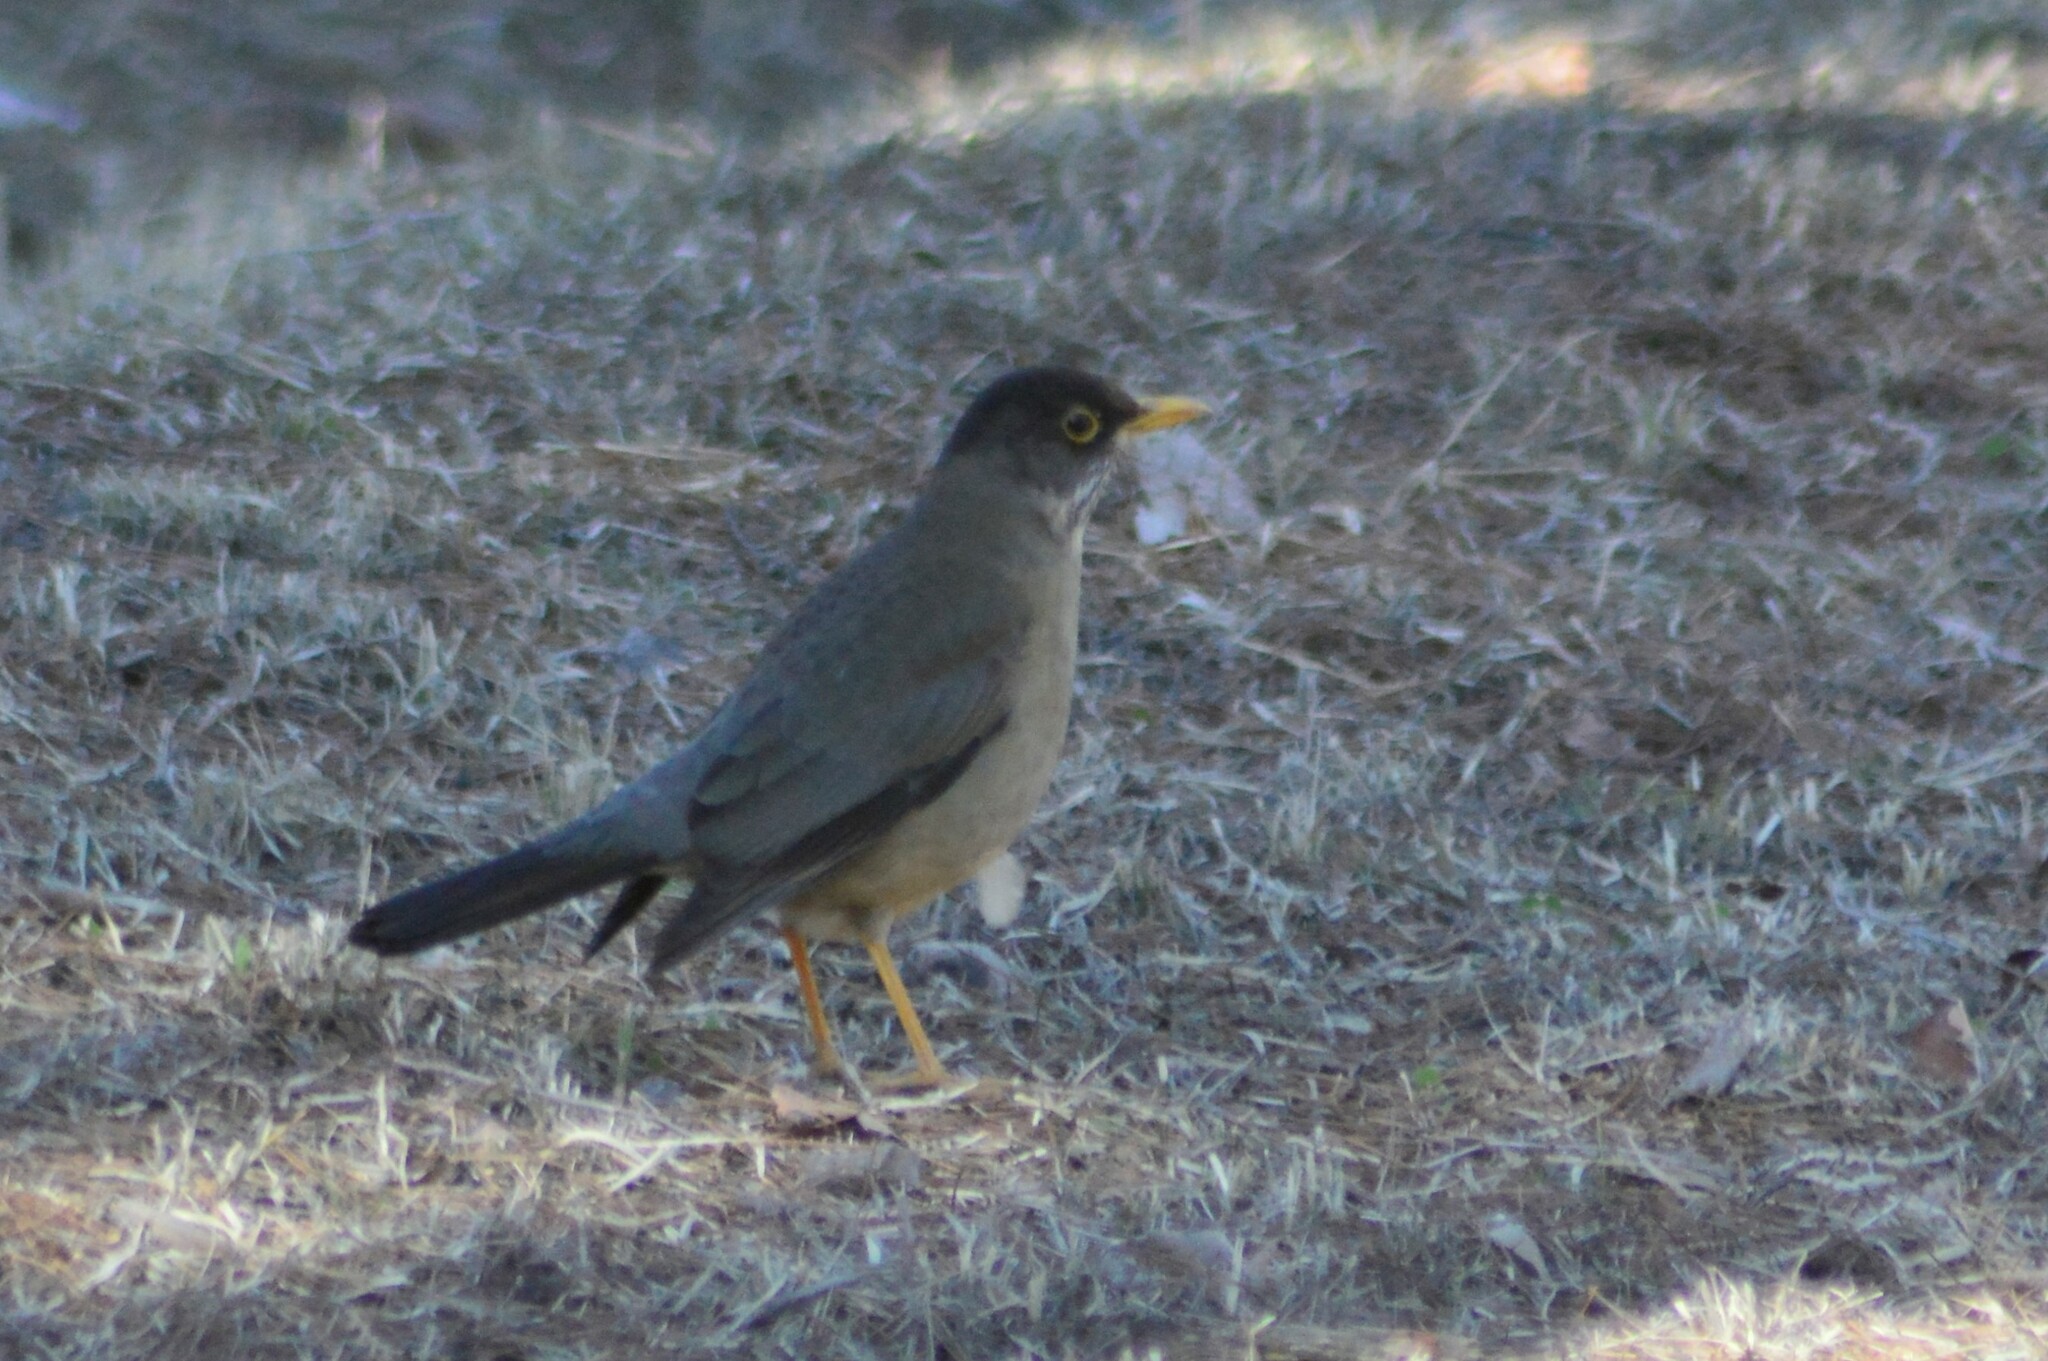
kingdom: Animalia
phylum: Chordata
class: Aves
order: Passeriformes
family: Turdidae
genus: Turdus
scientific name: Turdus falcklandii
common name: Austral thrush
